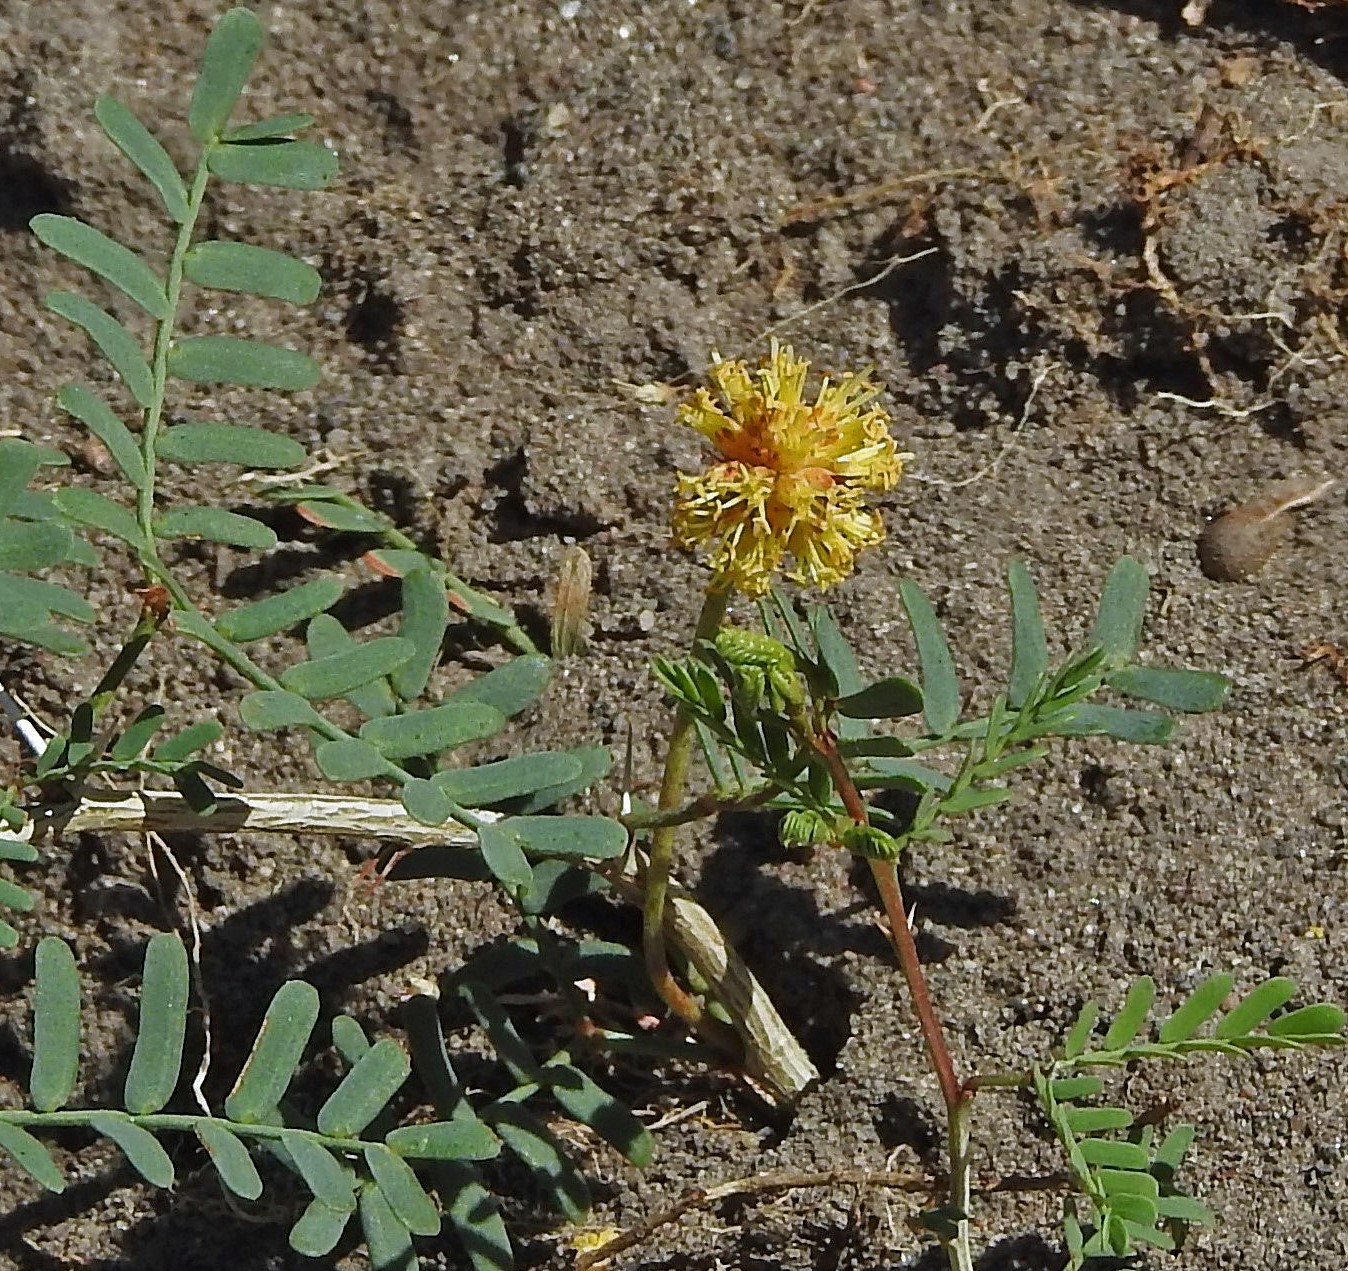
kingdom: Plantae
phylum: Tracheophyta
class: Magnoliopsida
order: Fabales
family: Fabaceae
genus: Prosopis
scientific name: Prosopis strombulifera
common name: Creeping mesquite
